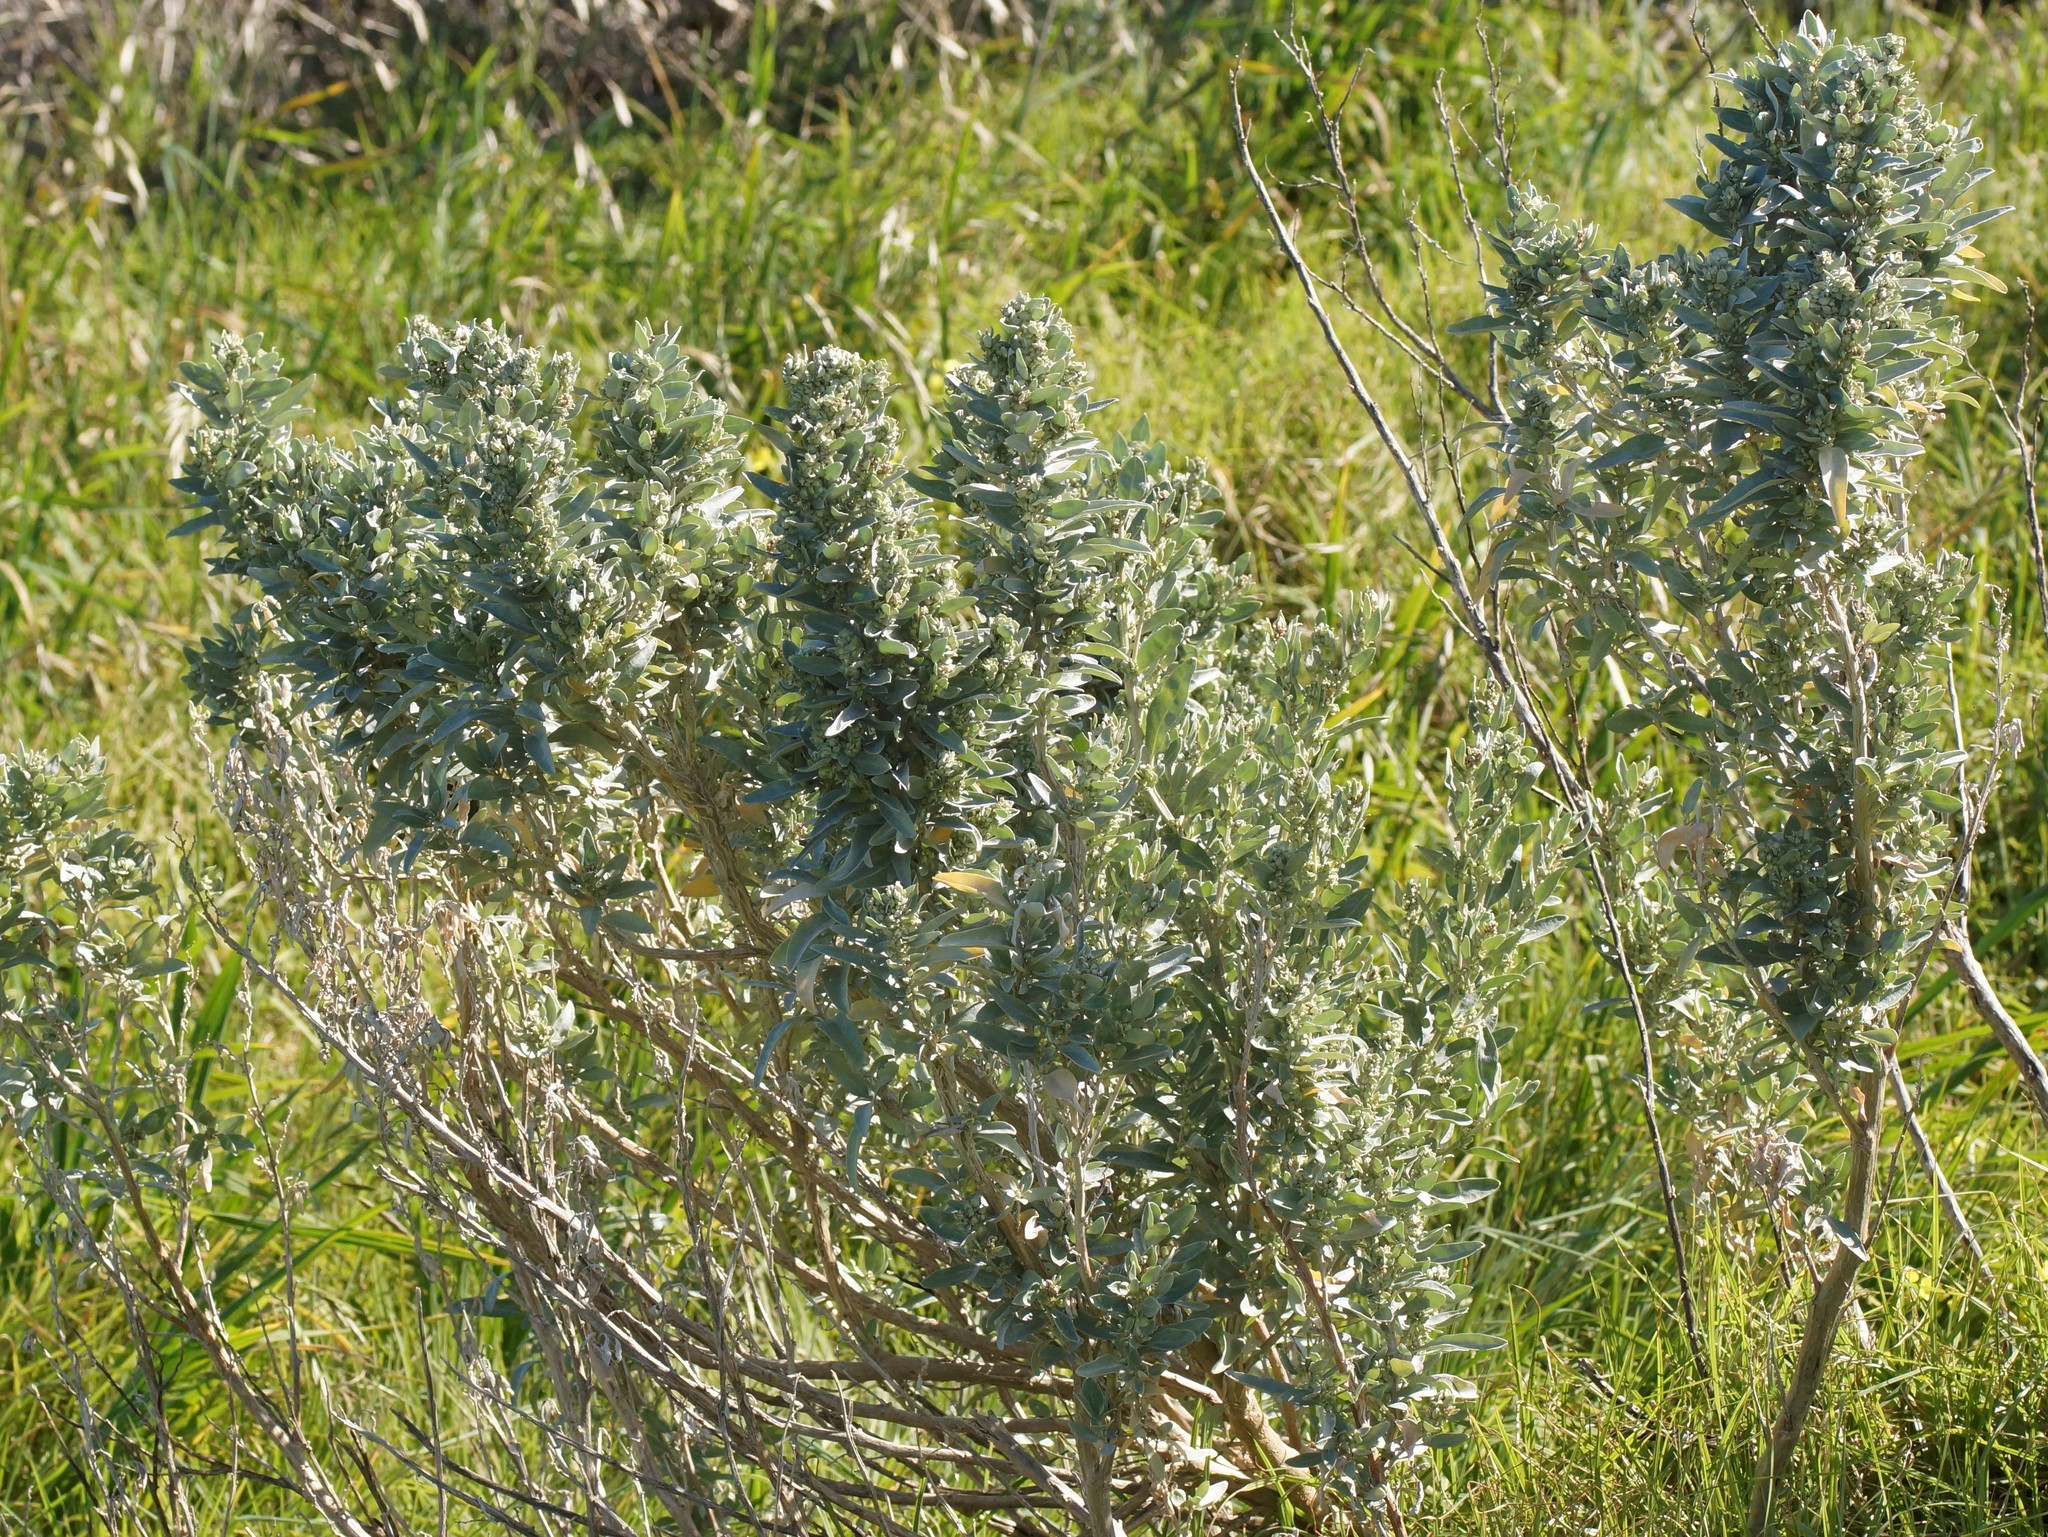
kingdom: Plantae
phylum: Tracheophyta
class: Magnoliopsida
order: Caryophyllales
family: Amaranthaceae
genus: Atriplex
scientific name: Atriplex cinerea
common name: Grey saltbush
